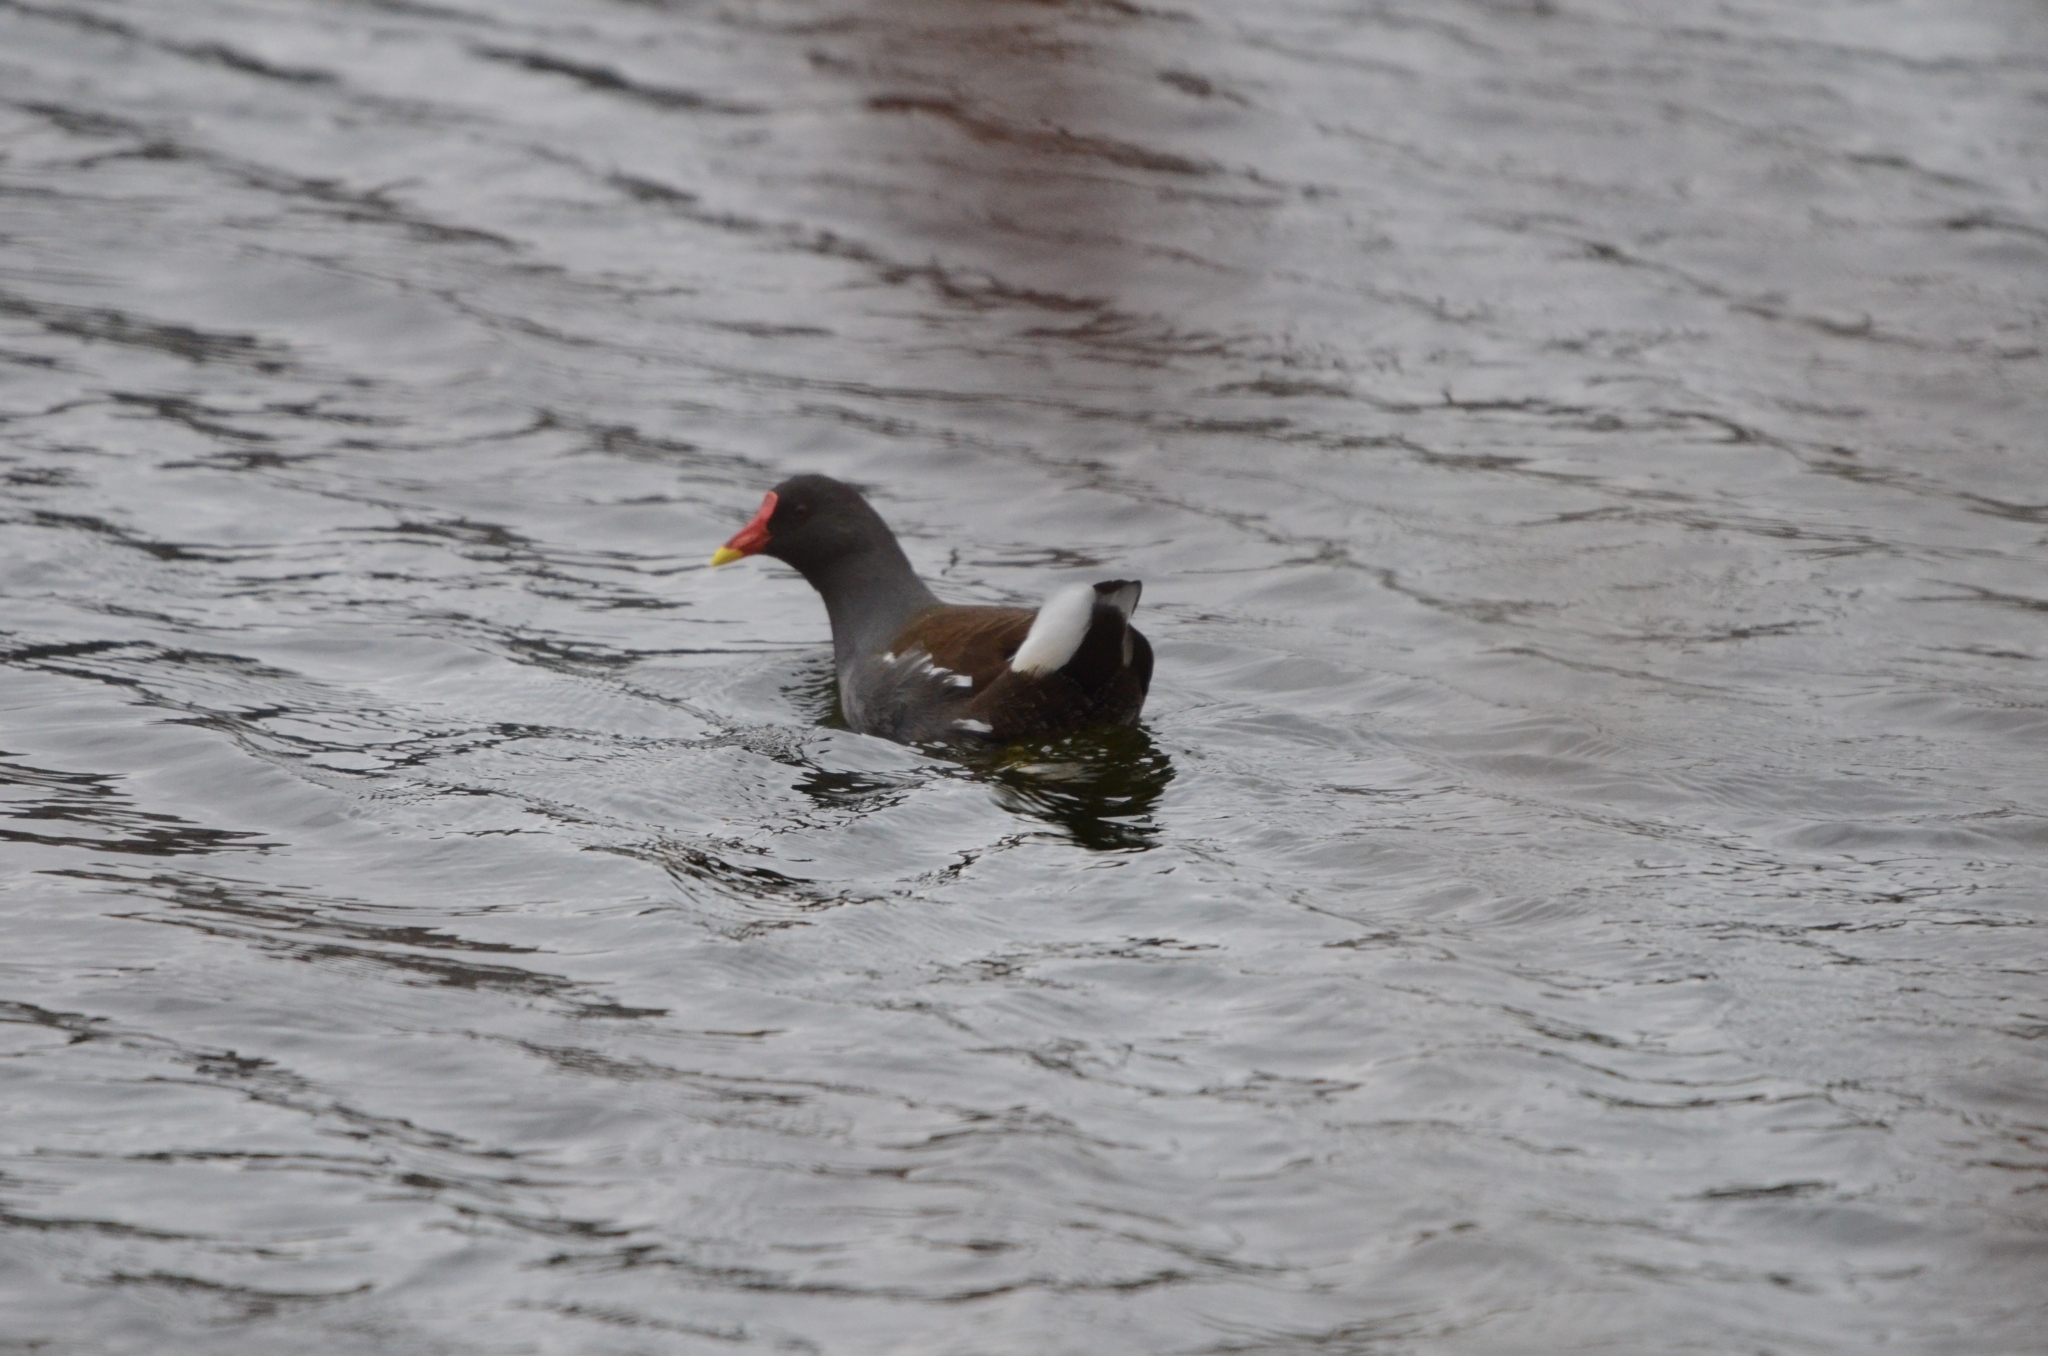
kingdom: Animalia
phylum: Chordata
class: Aves
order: Gruiformes
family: Rallidae
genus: Gallinula
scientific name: Gallinula chloropus
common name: Common moorhen
